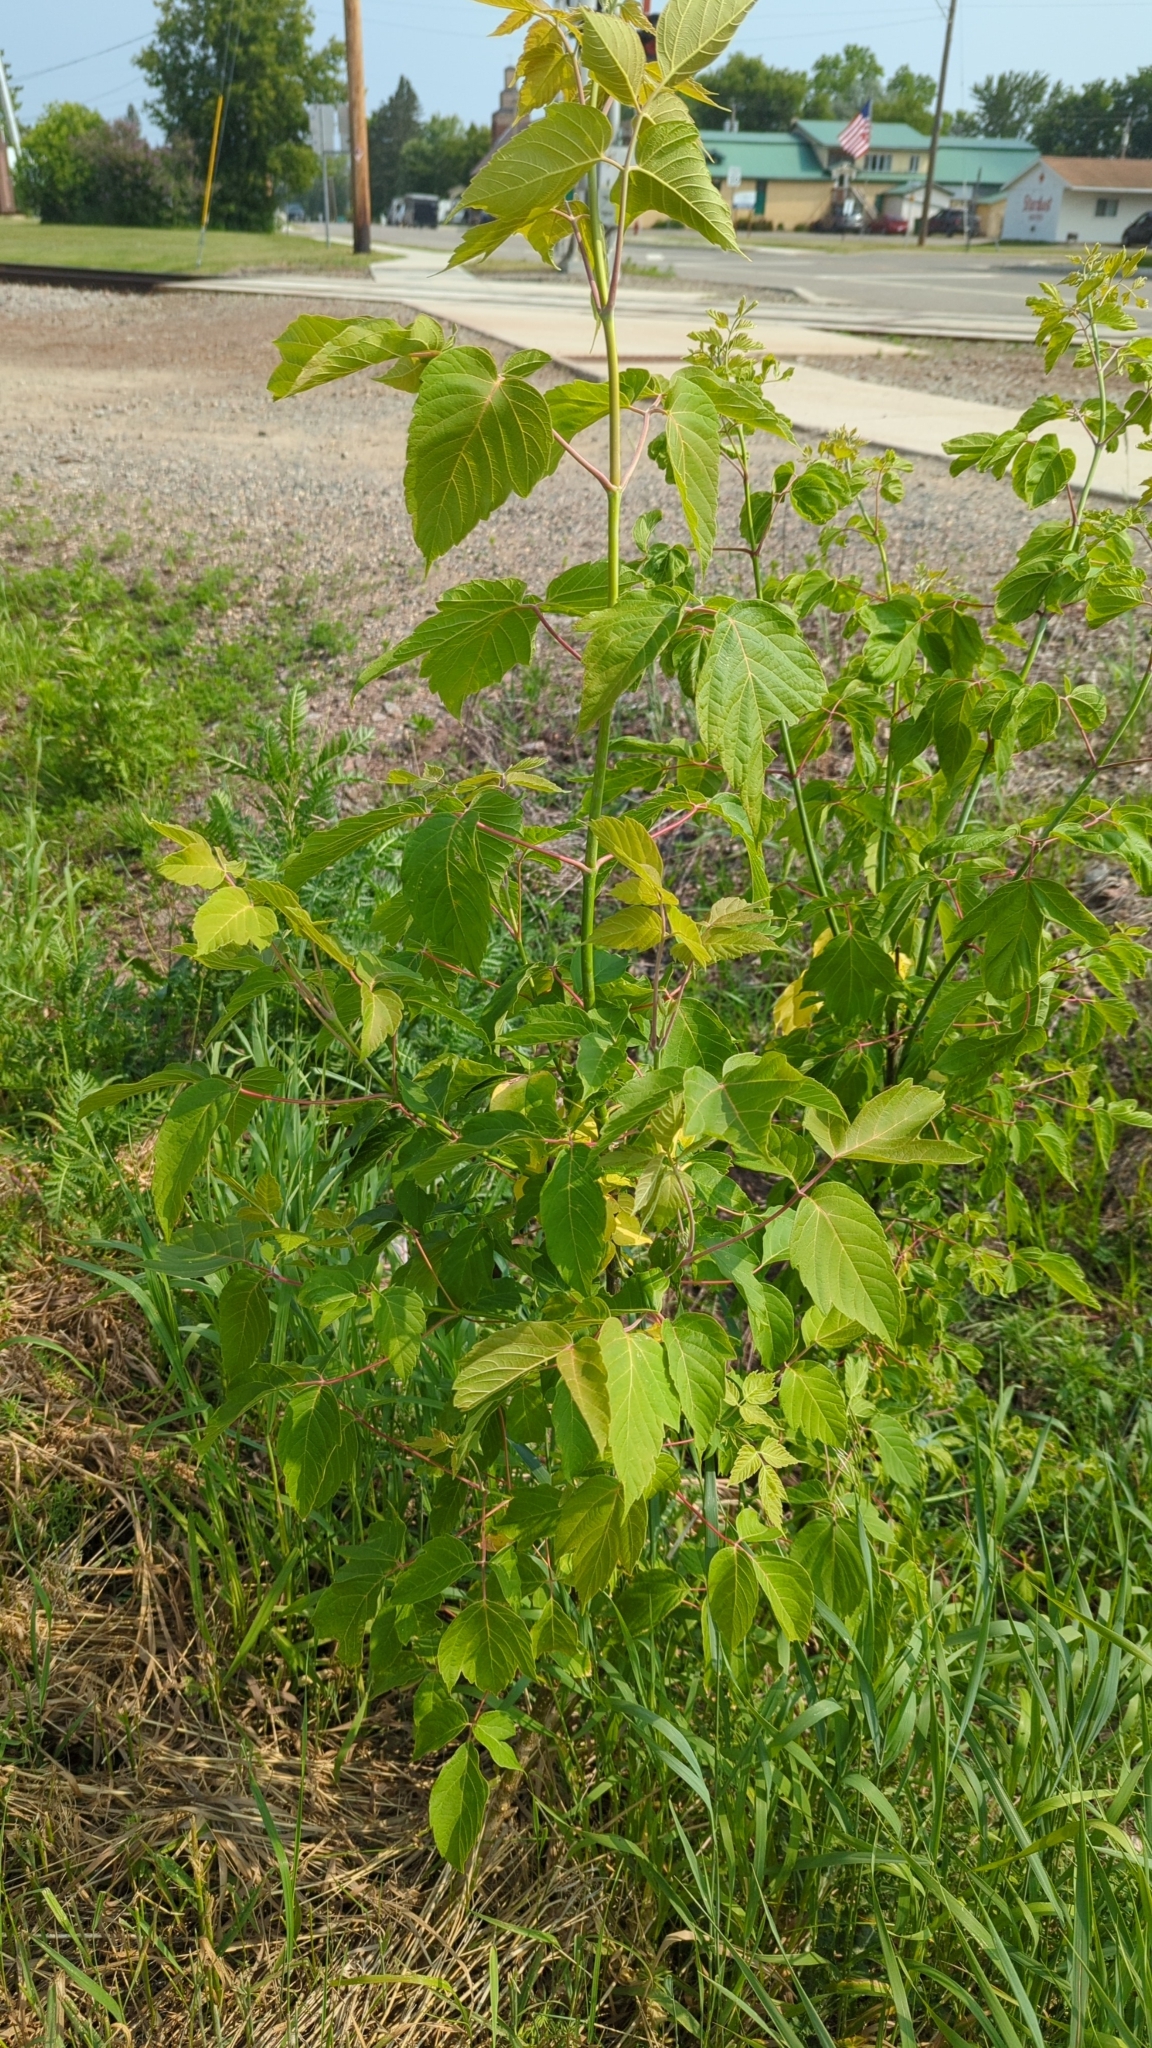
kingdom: Plantae
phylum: Tracheophyta
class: Magnoliopsida
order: Sapindales
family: Sapindaceae
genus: Acer
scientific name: Acer negundo
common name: Ashleaf maple
